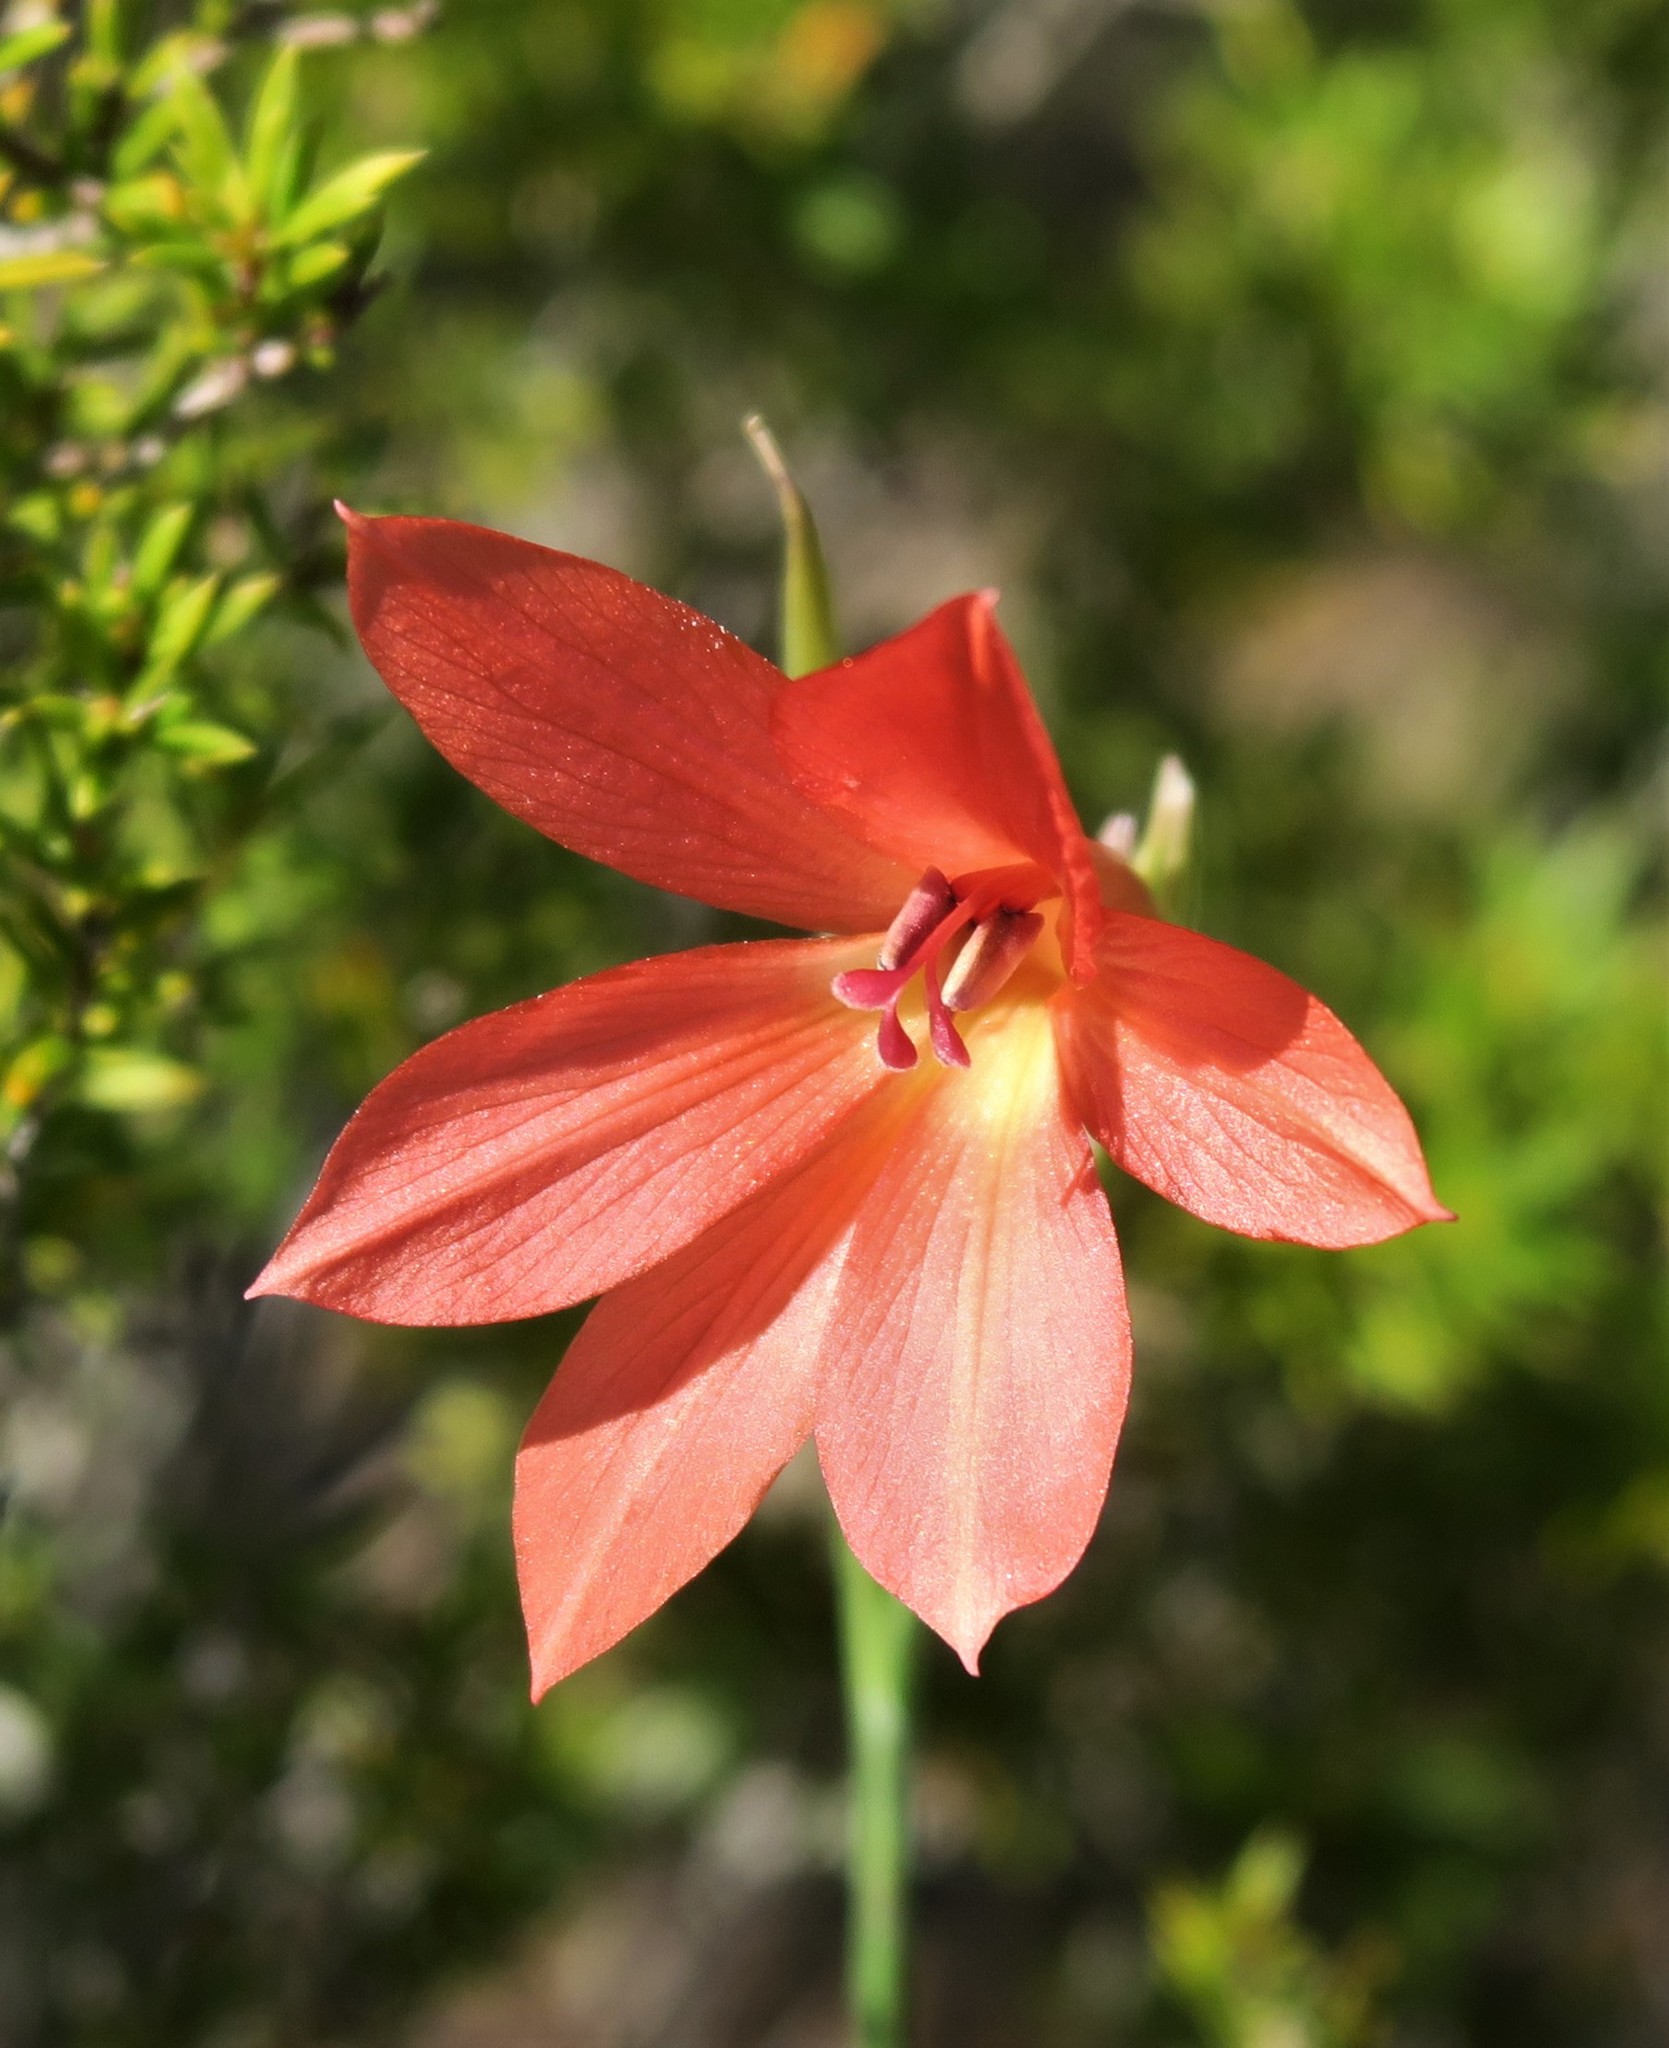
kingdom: Plantae
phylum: Tracheophyta
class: Liliopsida
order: Asparagales
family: Iridaceae
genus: Gladiolus
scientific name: Gladiolus priorii
